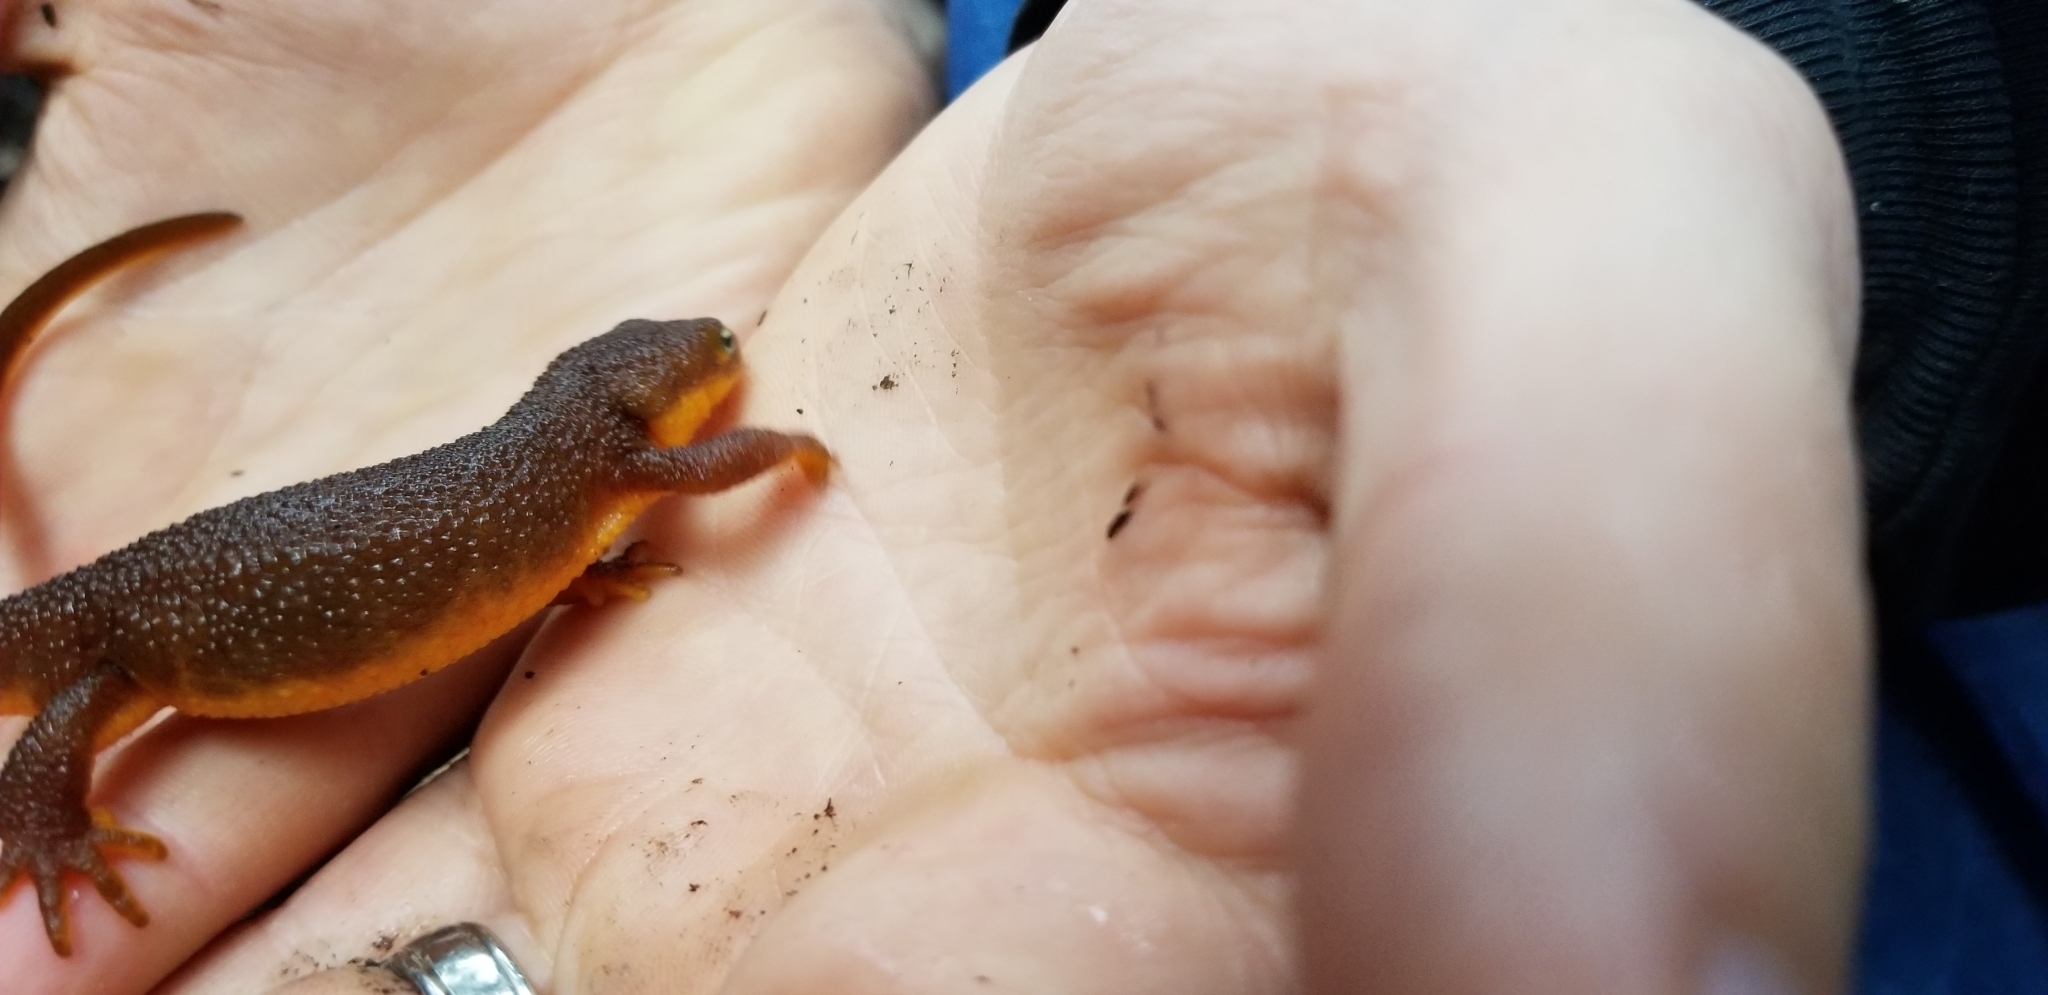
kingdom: Animalia
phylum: Chordata
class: Amphibia
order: Caudata
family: Salamandridae
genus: Taricha
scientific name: Taricha granulosa
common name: Roughskin newt
